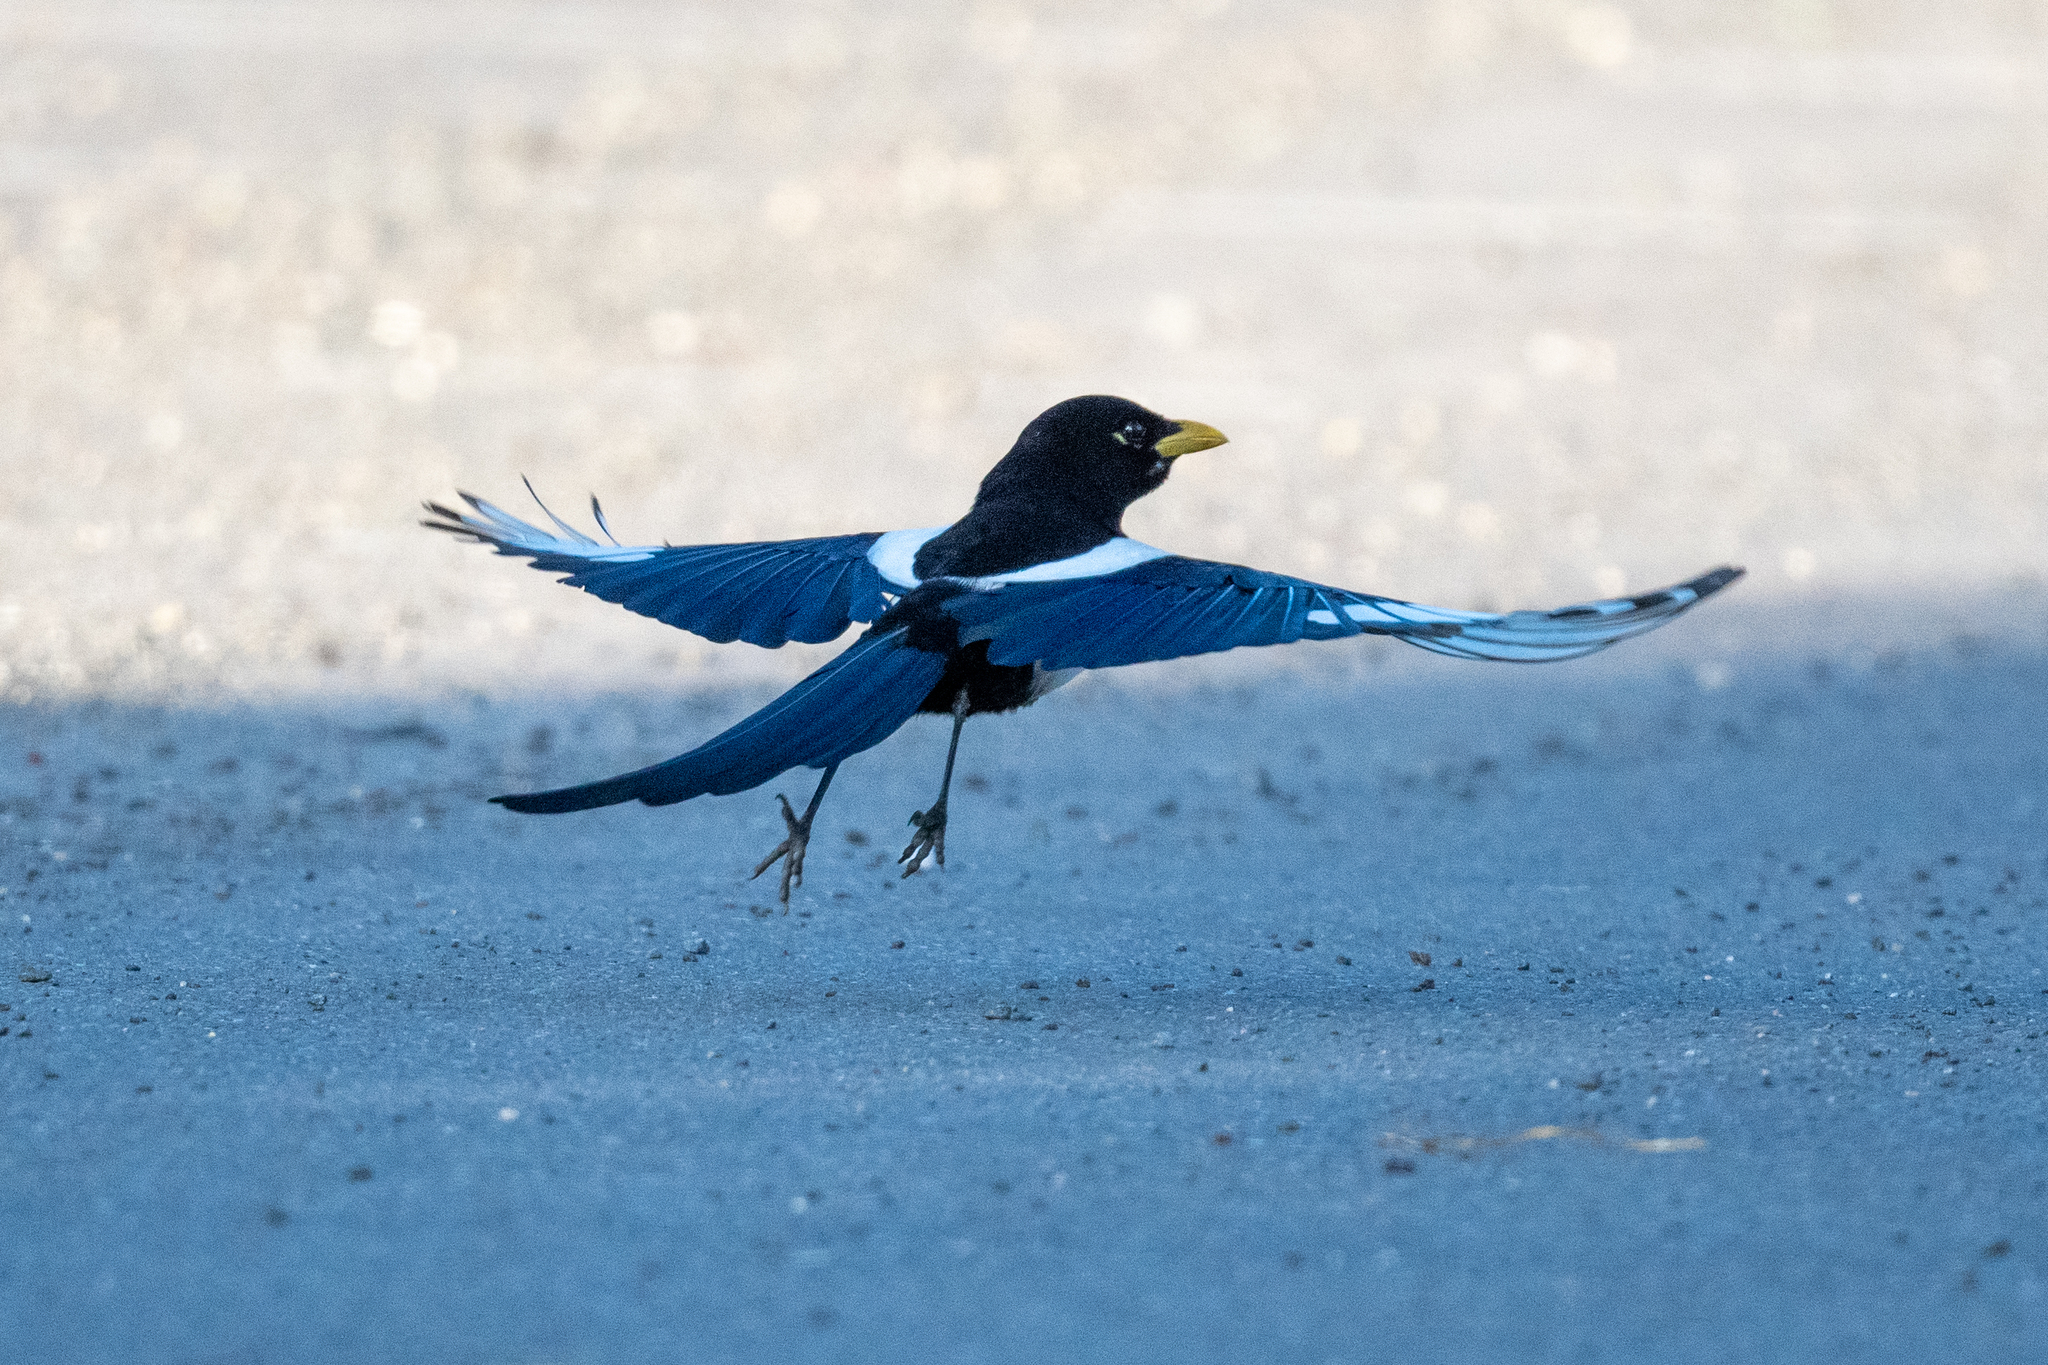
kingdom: Animalia
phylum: Chordata
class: Aves
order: Passeriformes
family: Corvidae
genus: Pica
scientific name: Pica nuttalli
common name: Yellow-billed magpie
